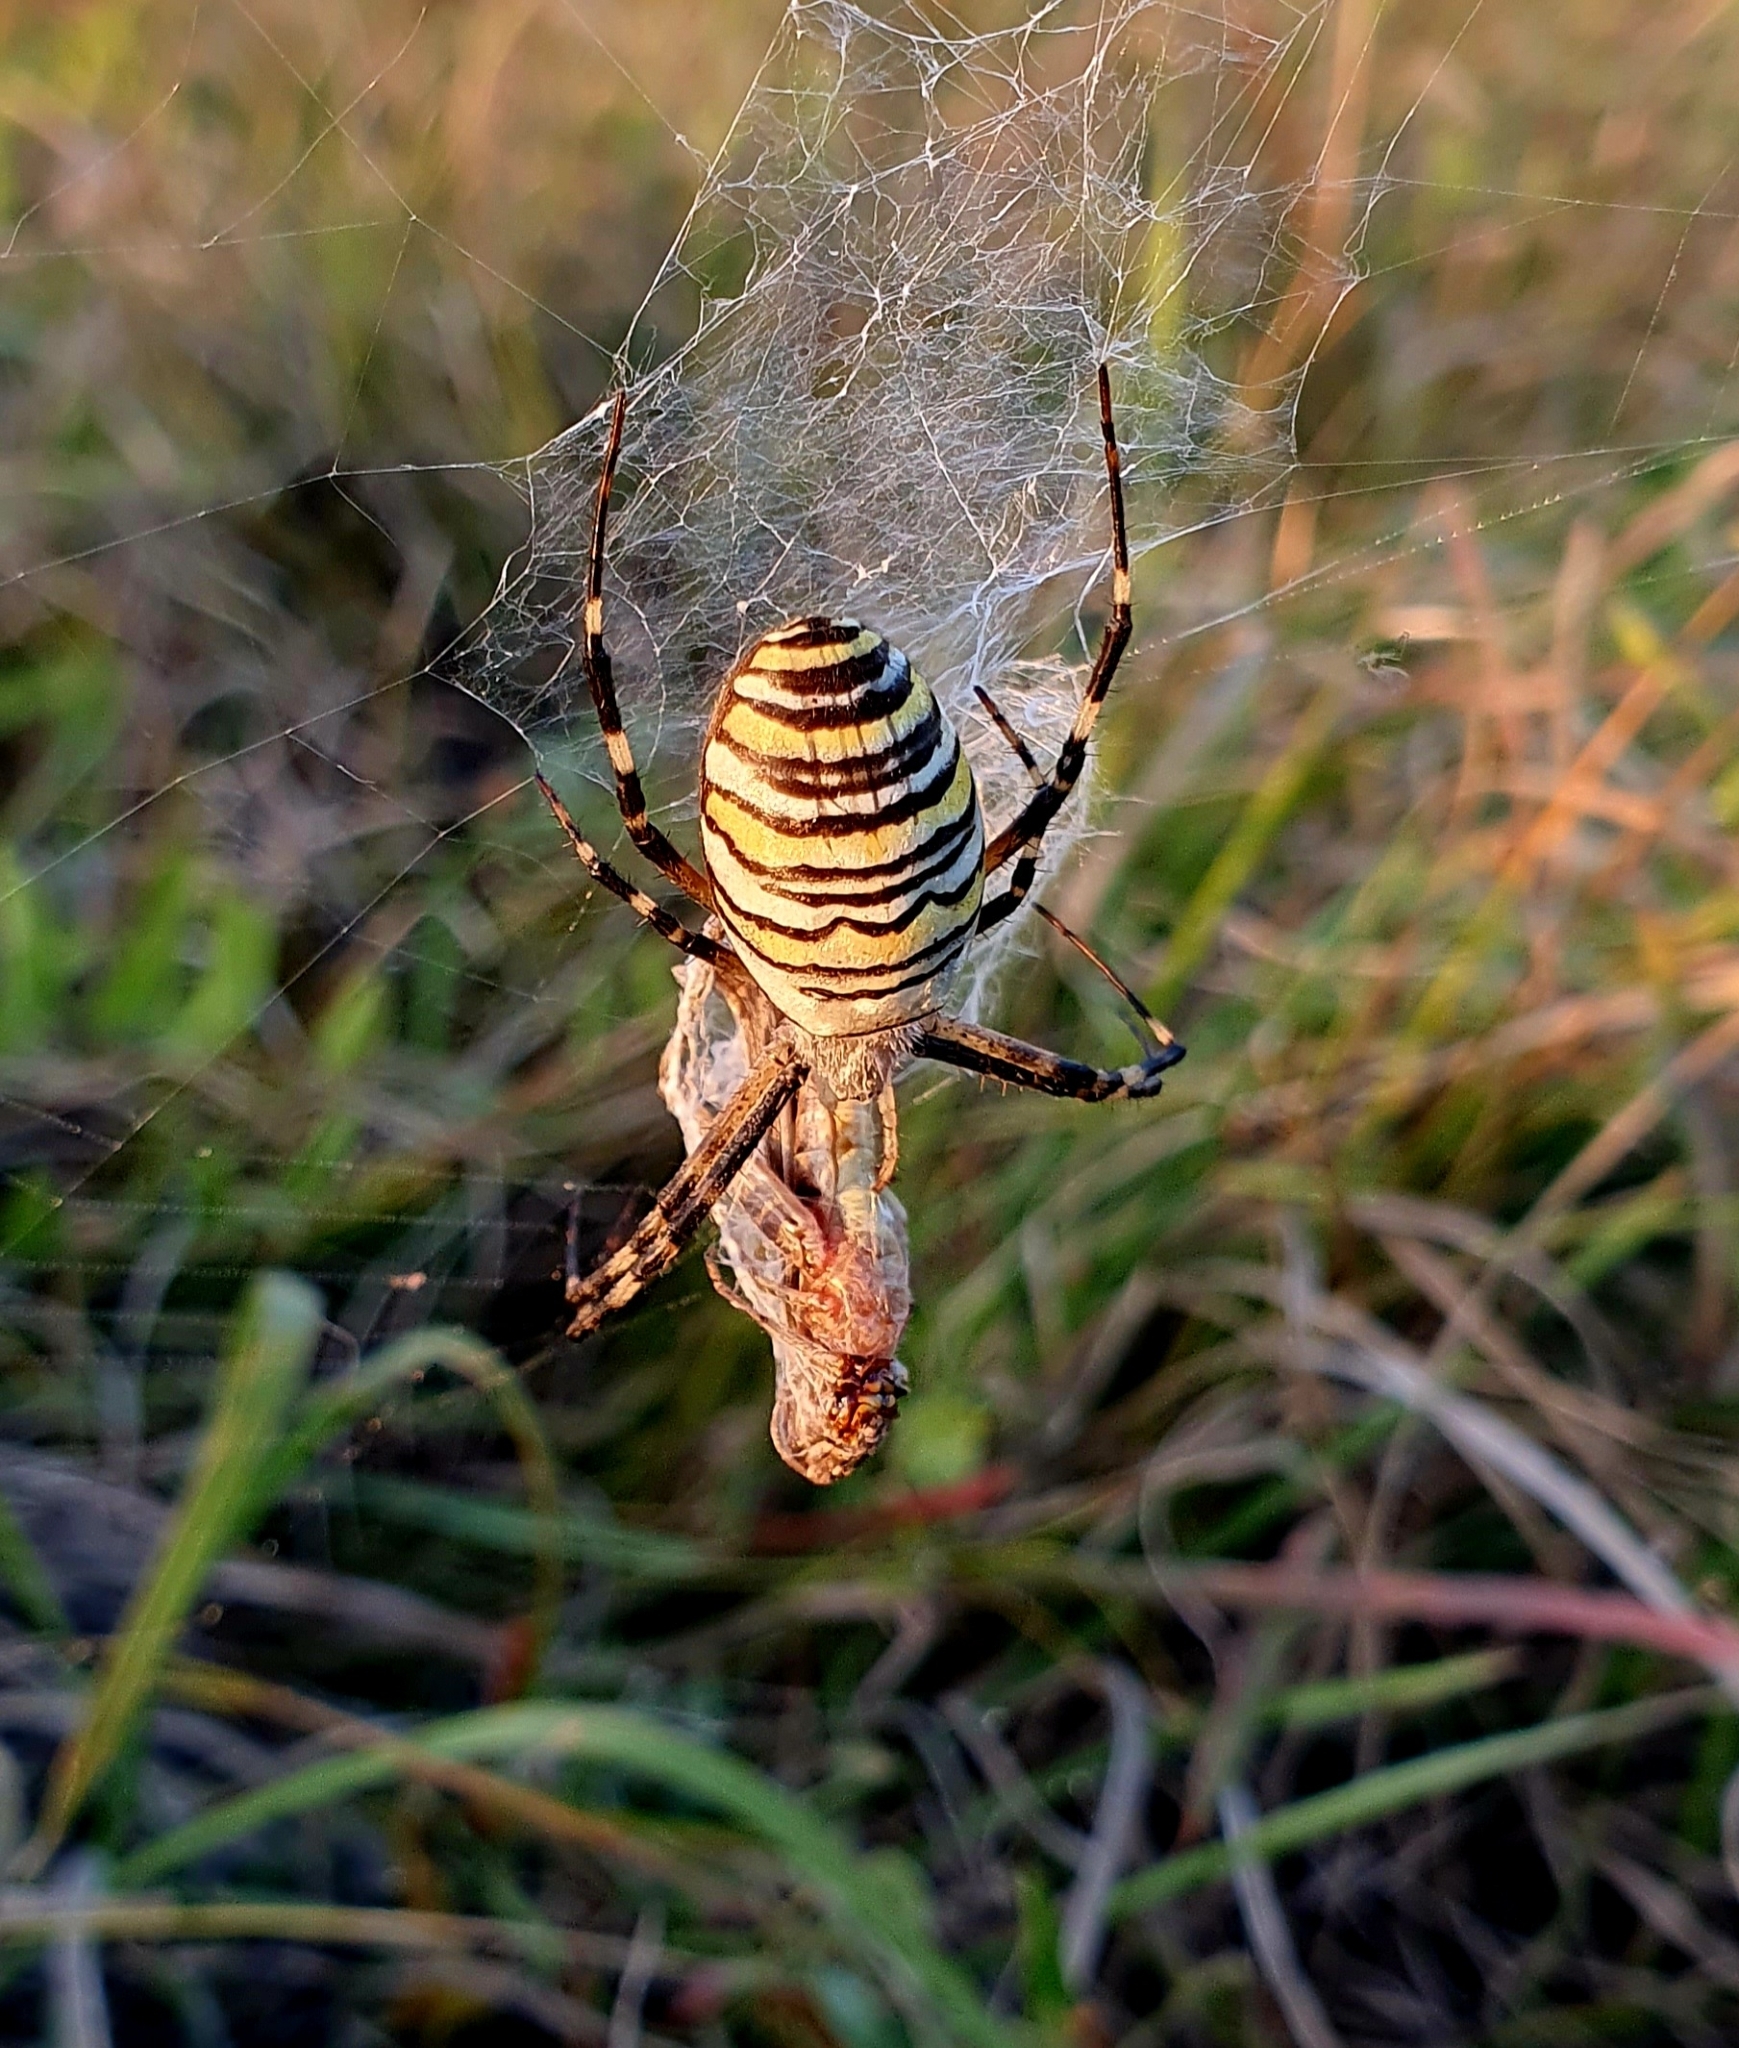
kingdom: Animalia
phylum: Arthropoda
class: Arachnida
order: Araneae
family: Araneidae
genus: Argiope
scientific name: Argiope bruennichi
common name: Wasp spider
